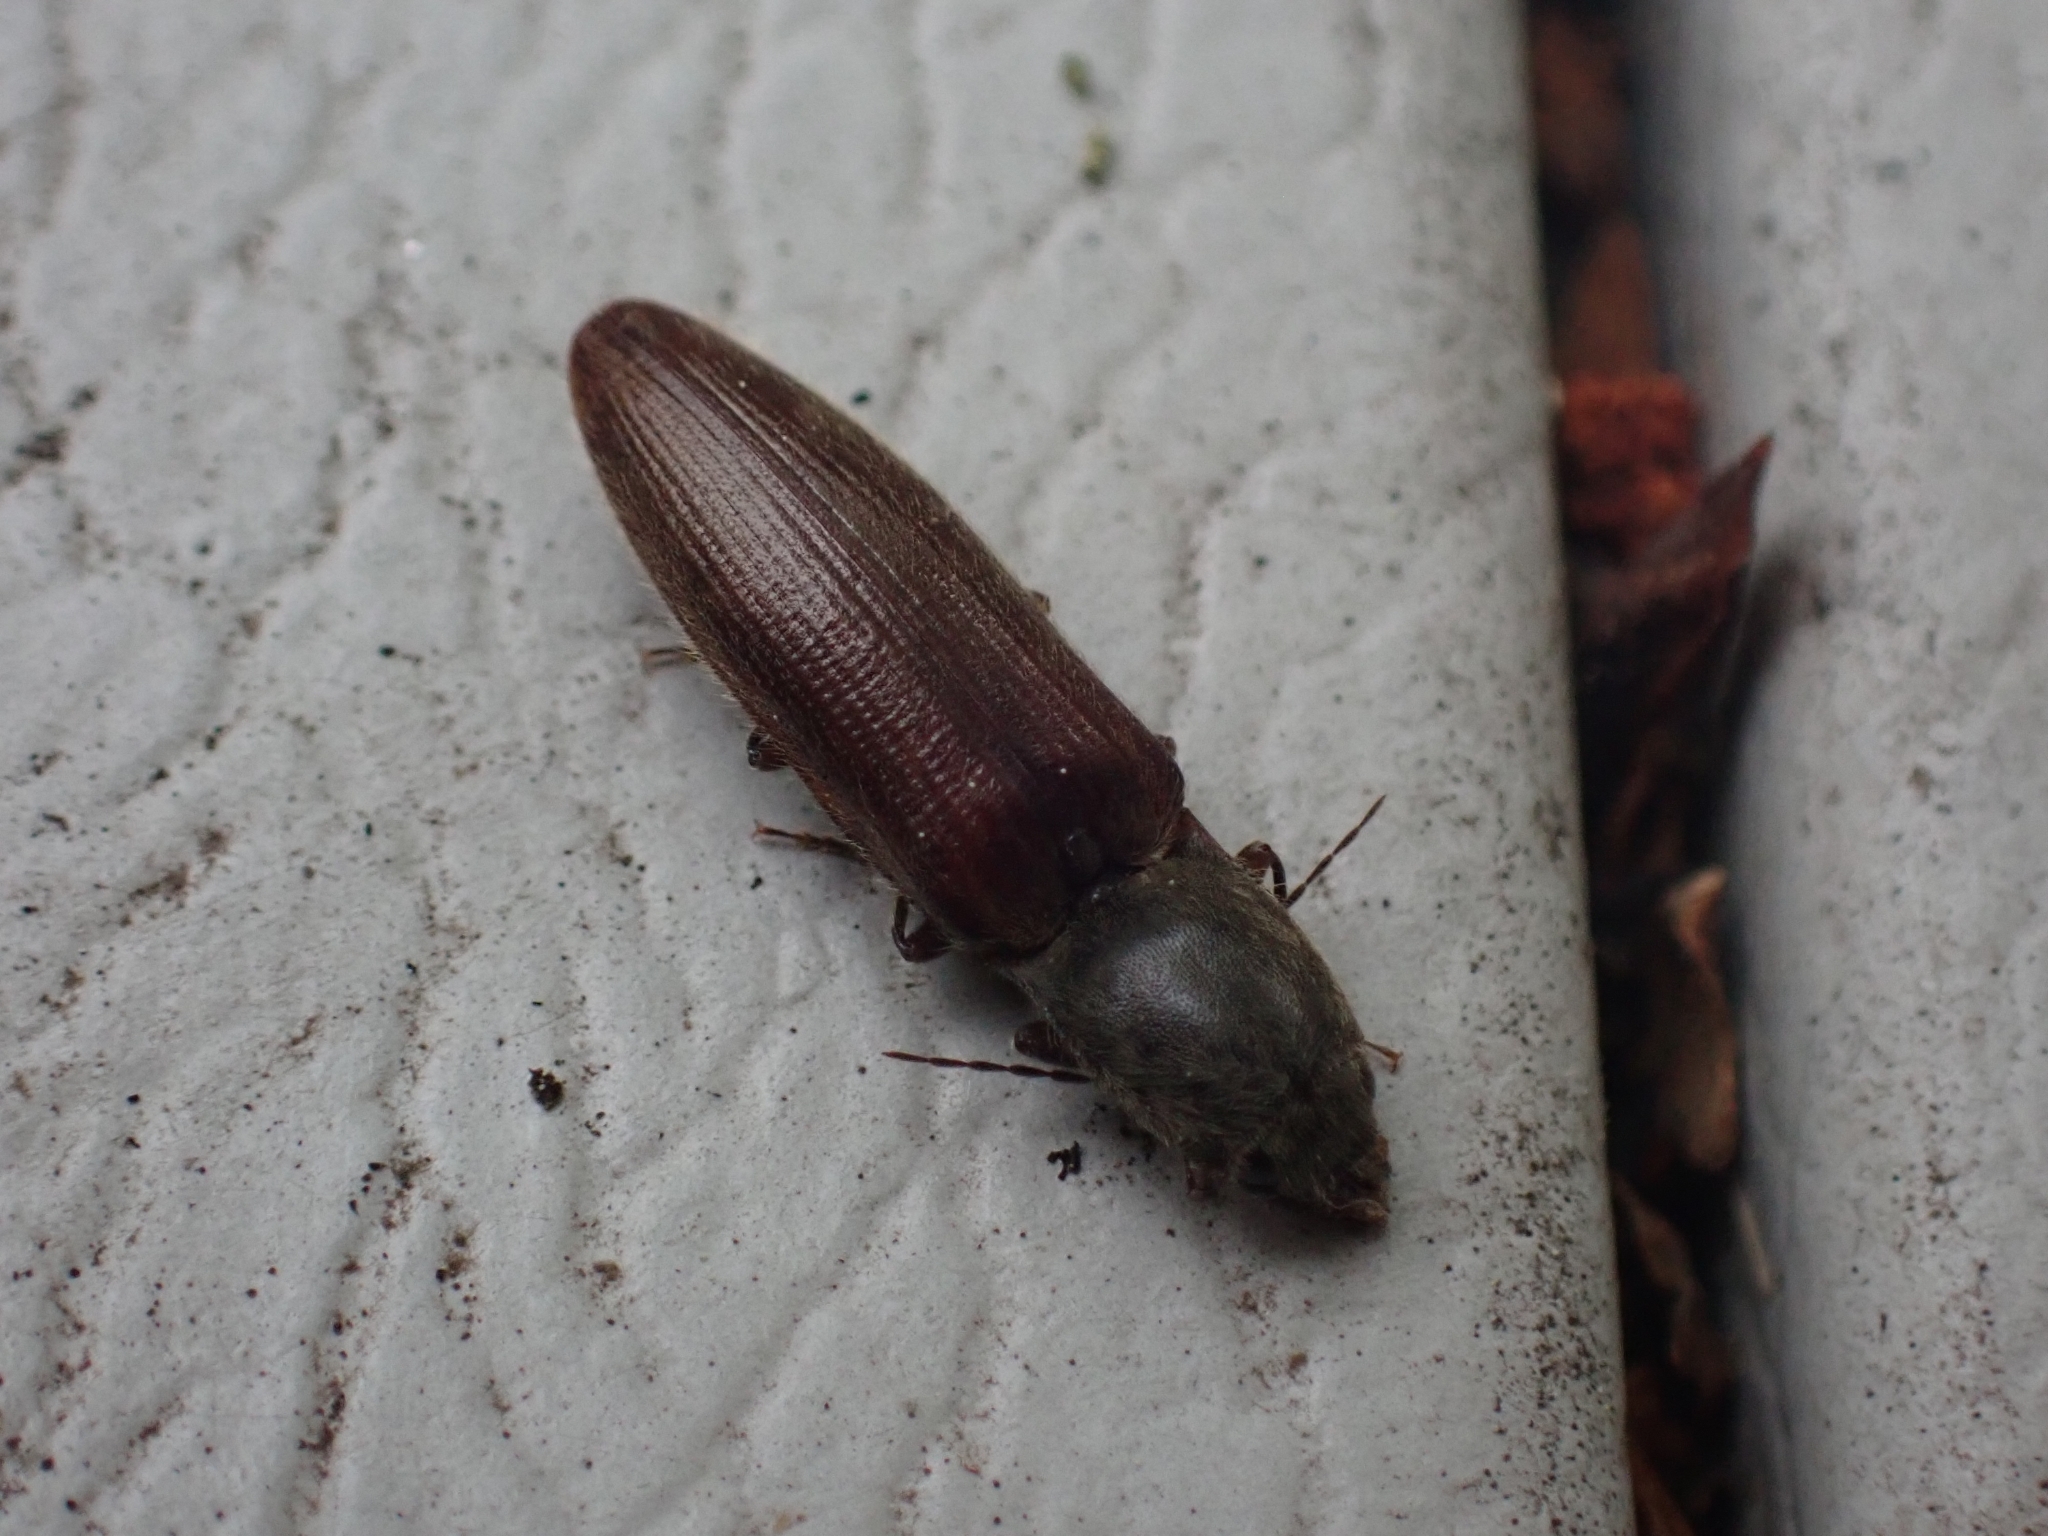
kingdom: Animalia
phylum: Arthropoda
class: Insecta
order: Coleoptera
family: Elateridae
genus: Athous
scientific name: Athous haemorrhoidalis
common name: Red-brown click beetle
